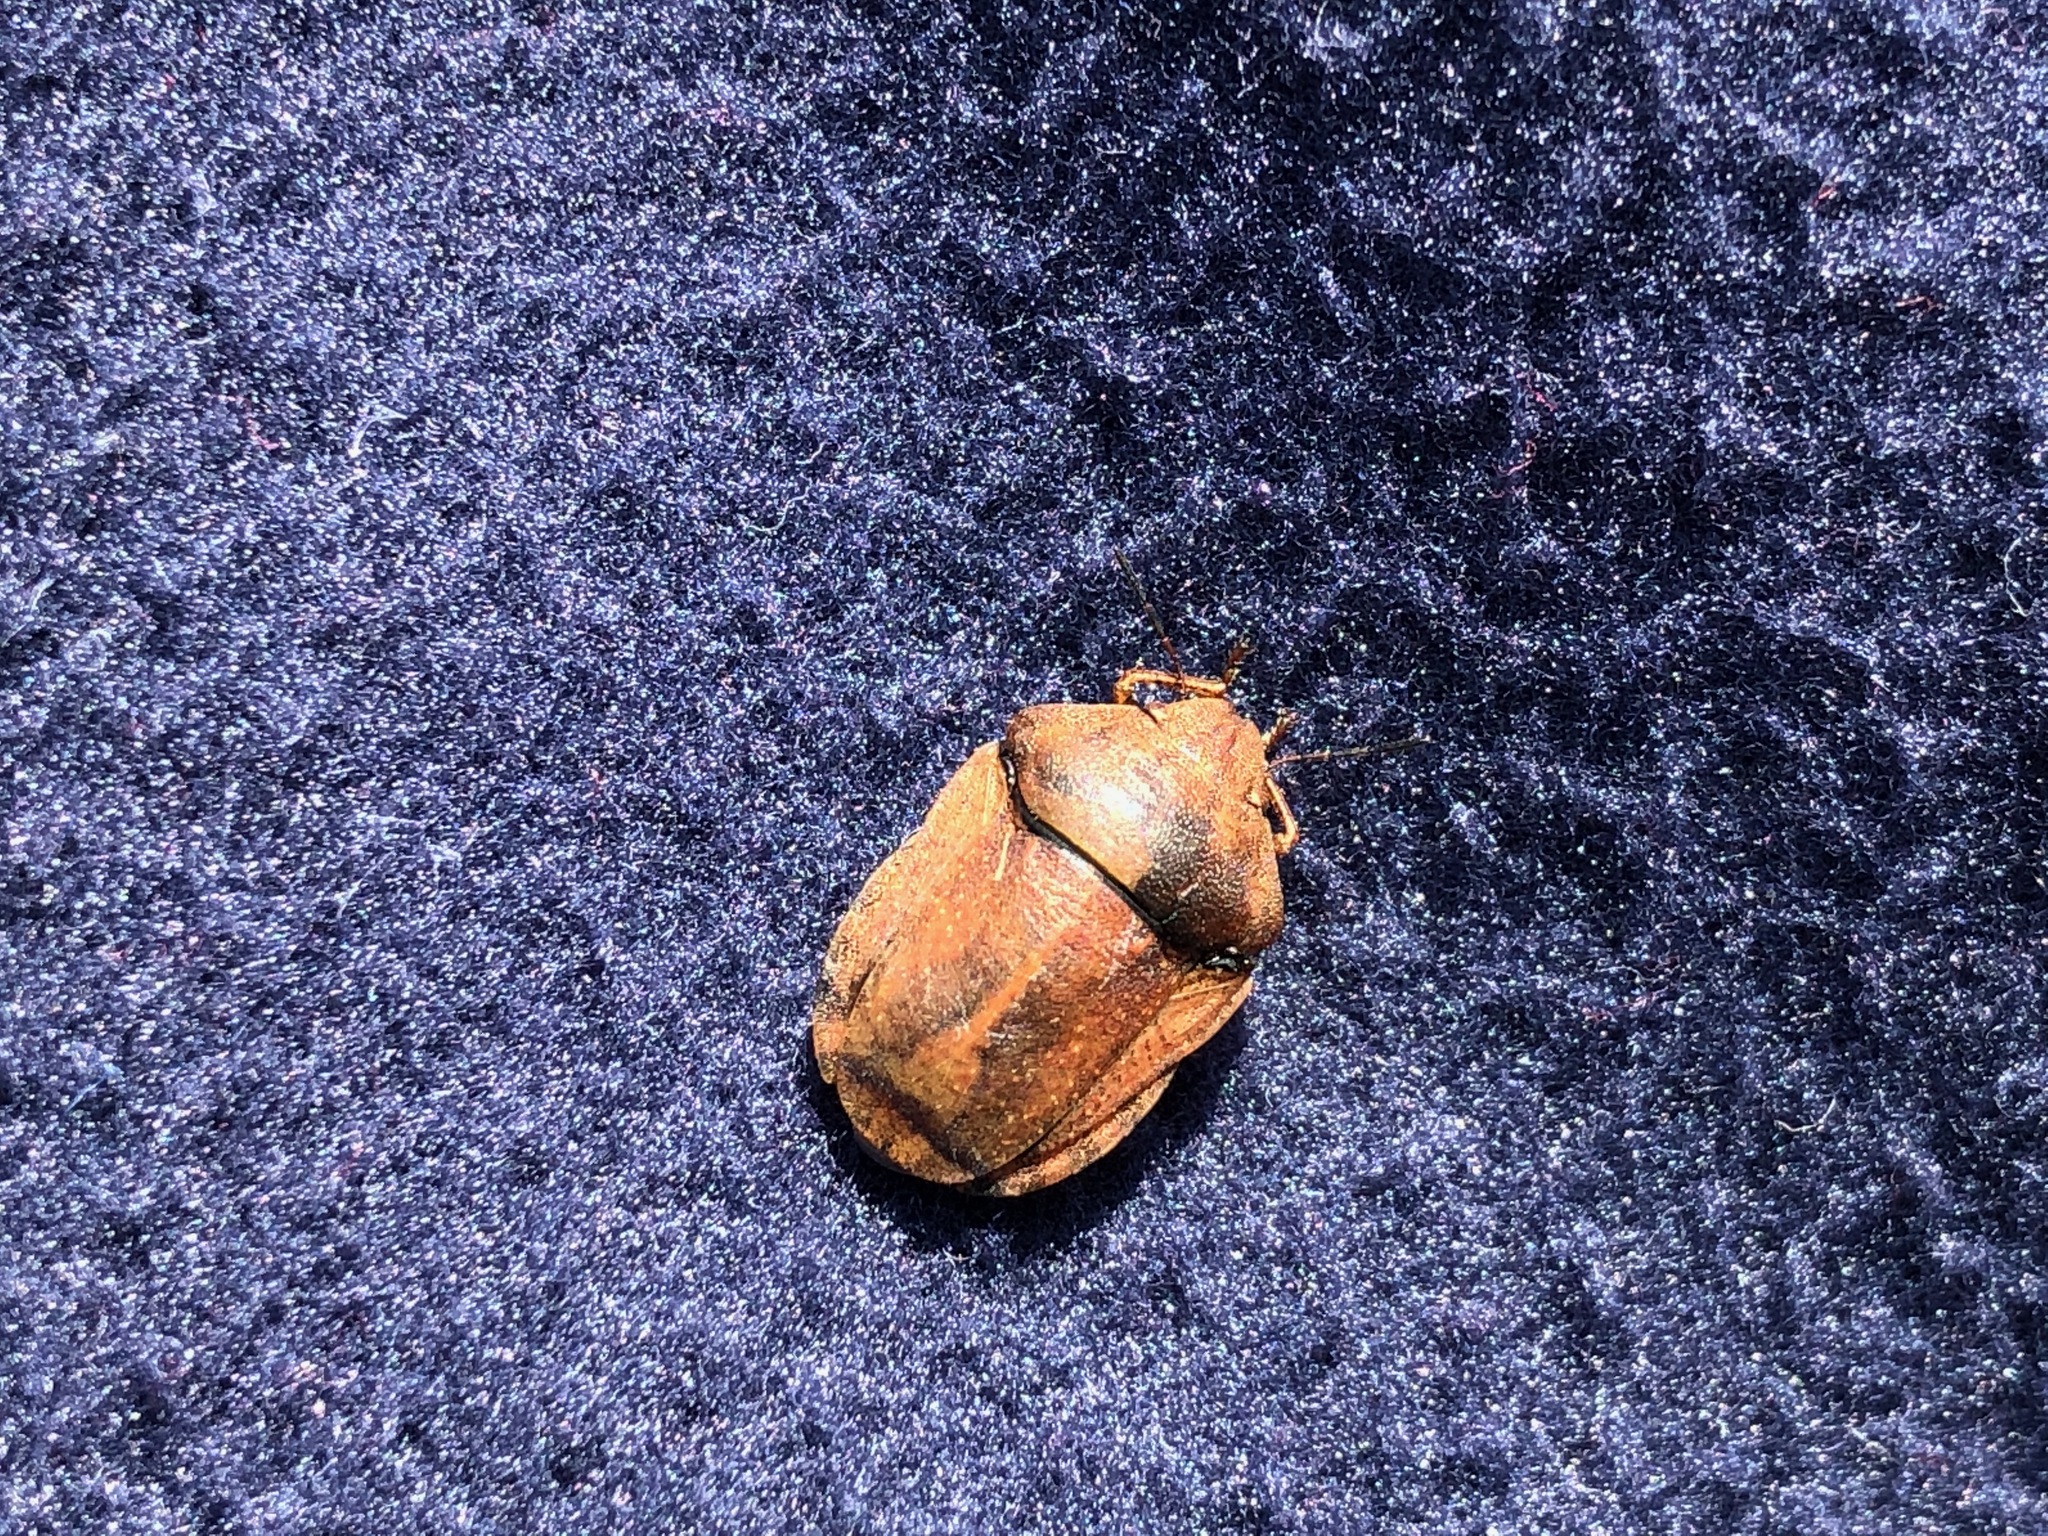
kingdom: Animalia
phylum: Arthropoda
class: Insecta
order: Hemiptera
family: Scutelleridae
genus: Eurygaster
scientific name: Eurygaster testudinaria
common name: Tortoise bug
